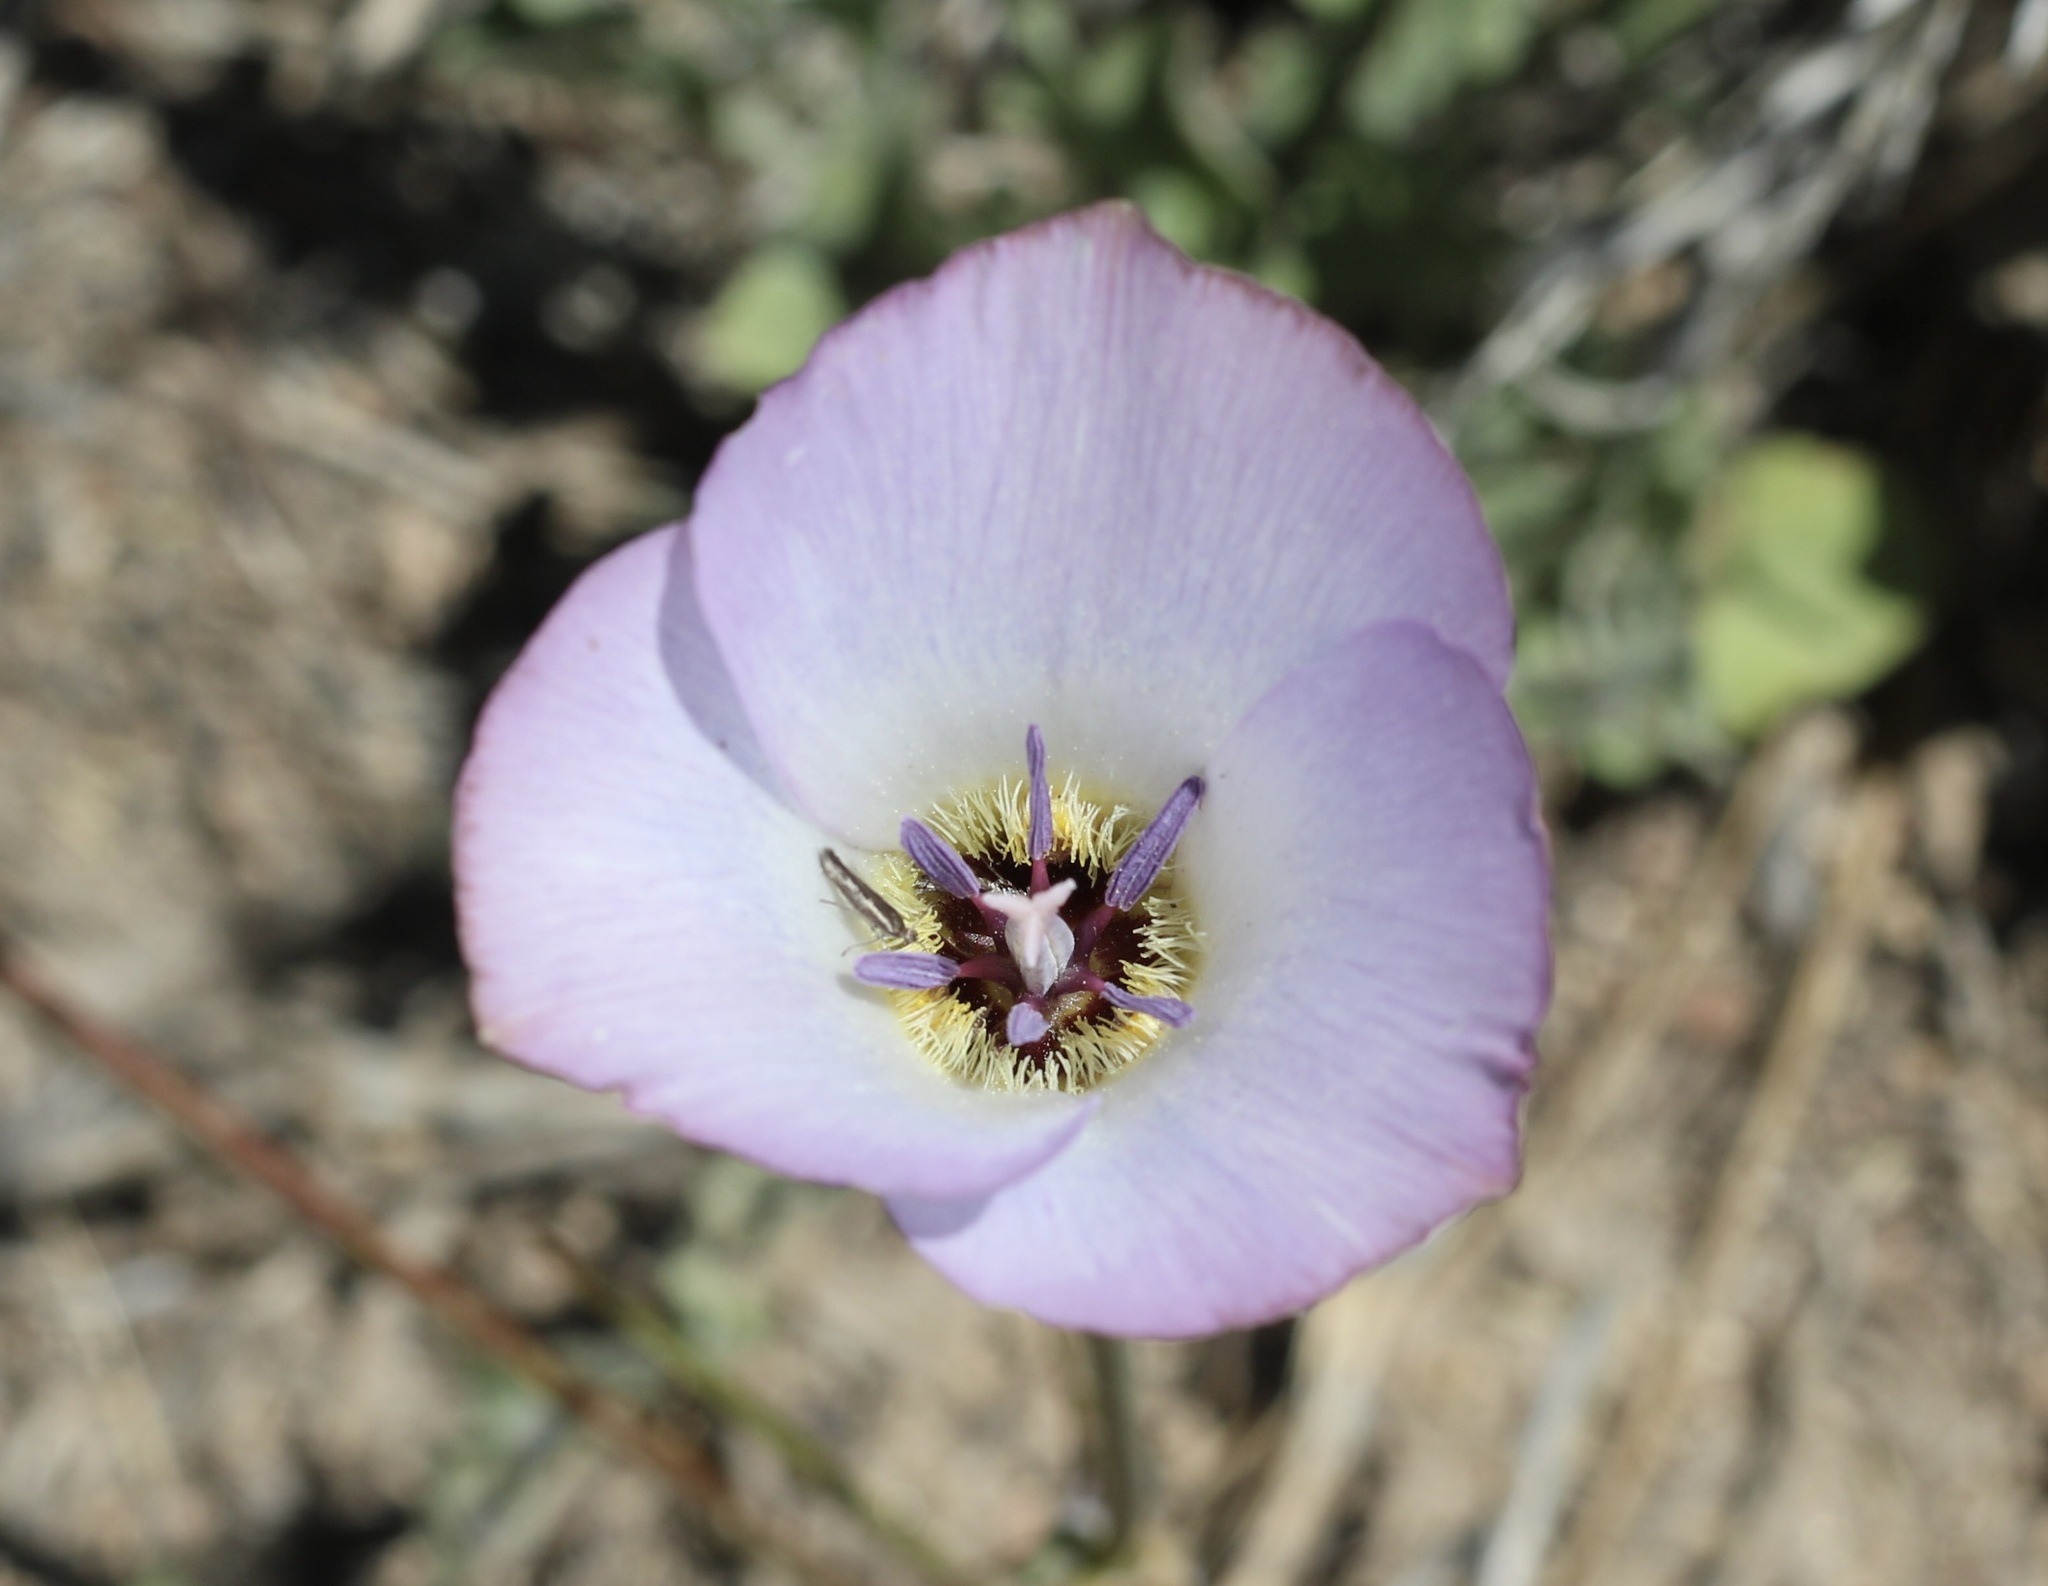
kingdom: Plantae
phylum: Tracheophyta
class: Liliopsida
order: Liliales
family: Liliaceae
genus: Calochortus
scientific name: Calochortus invenustus
